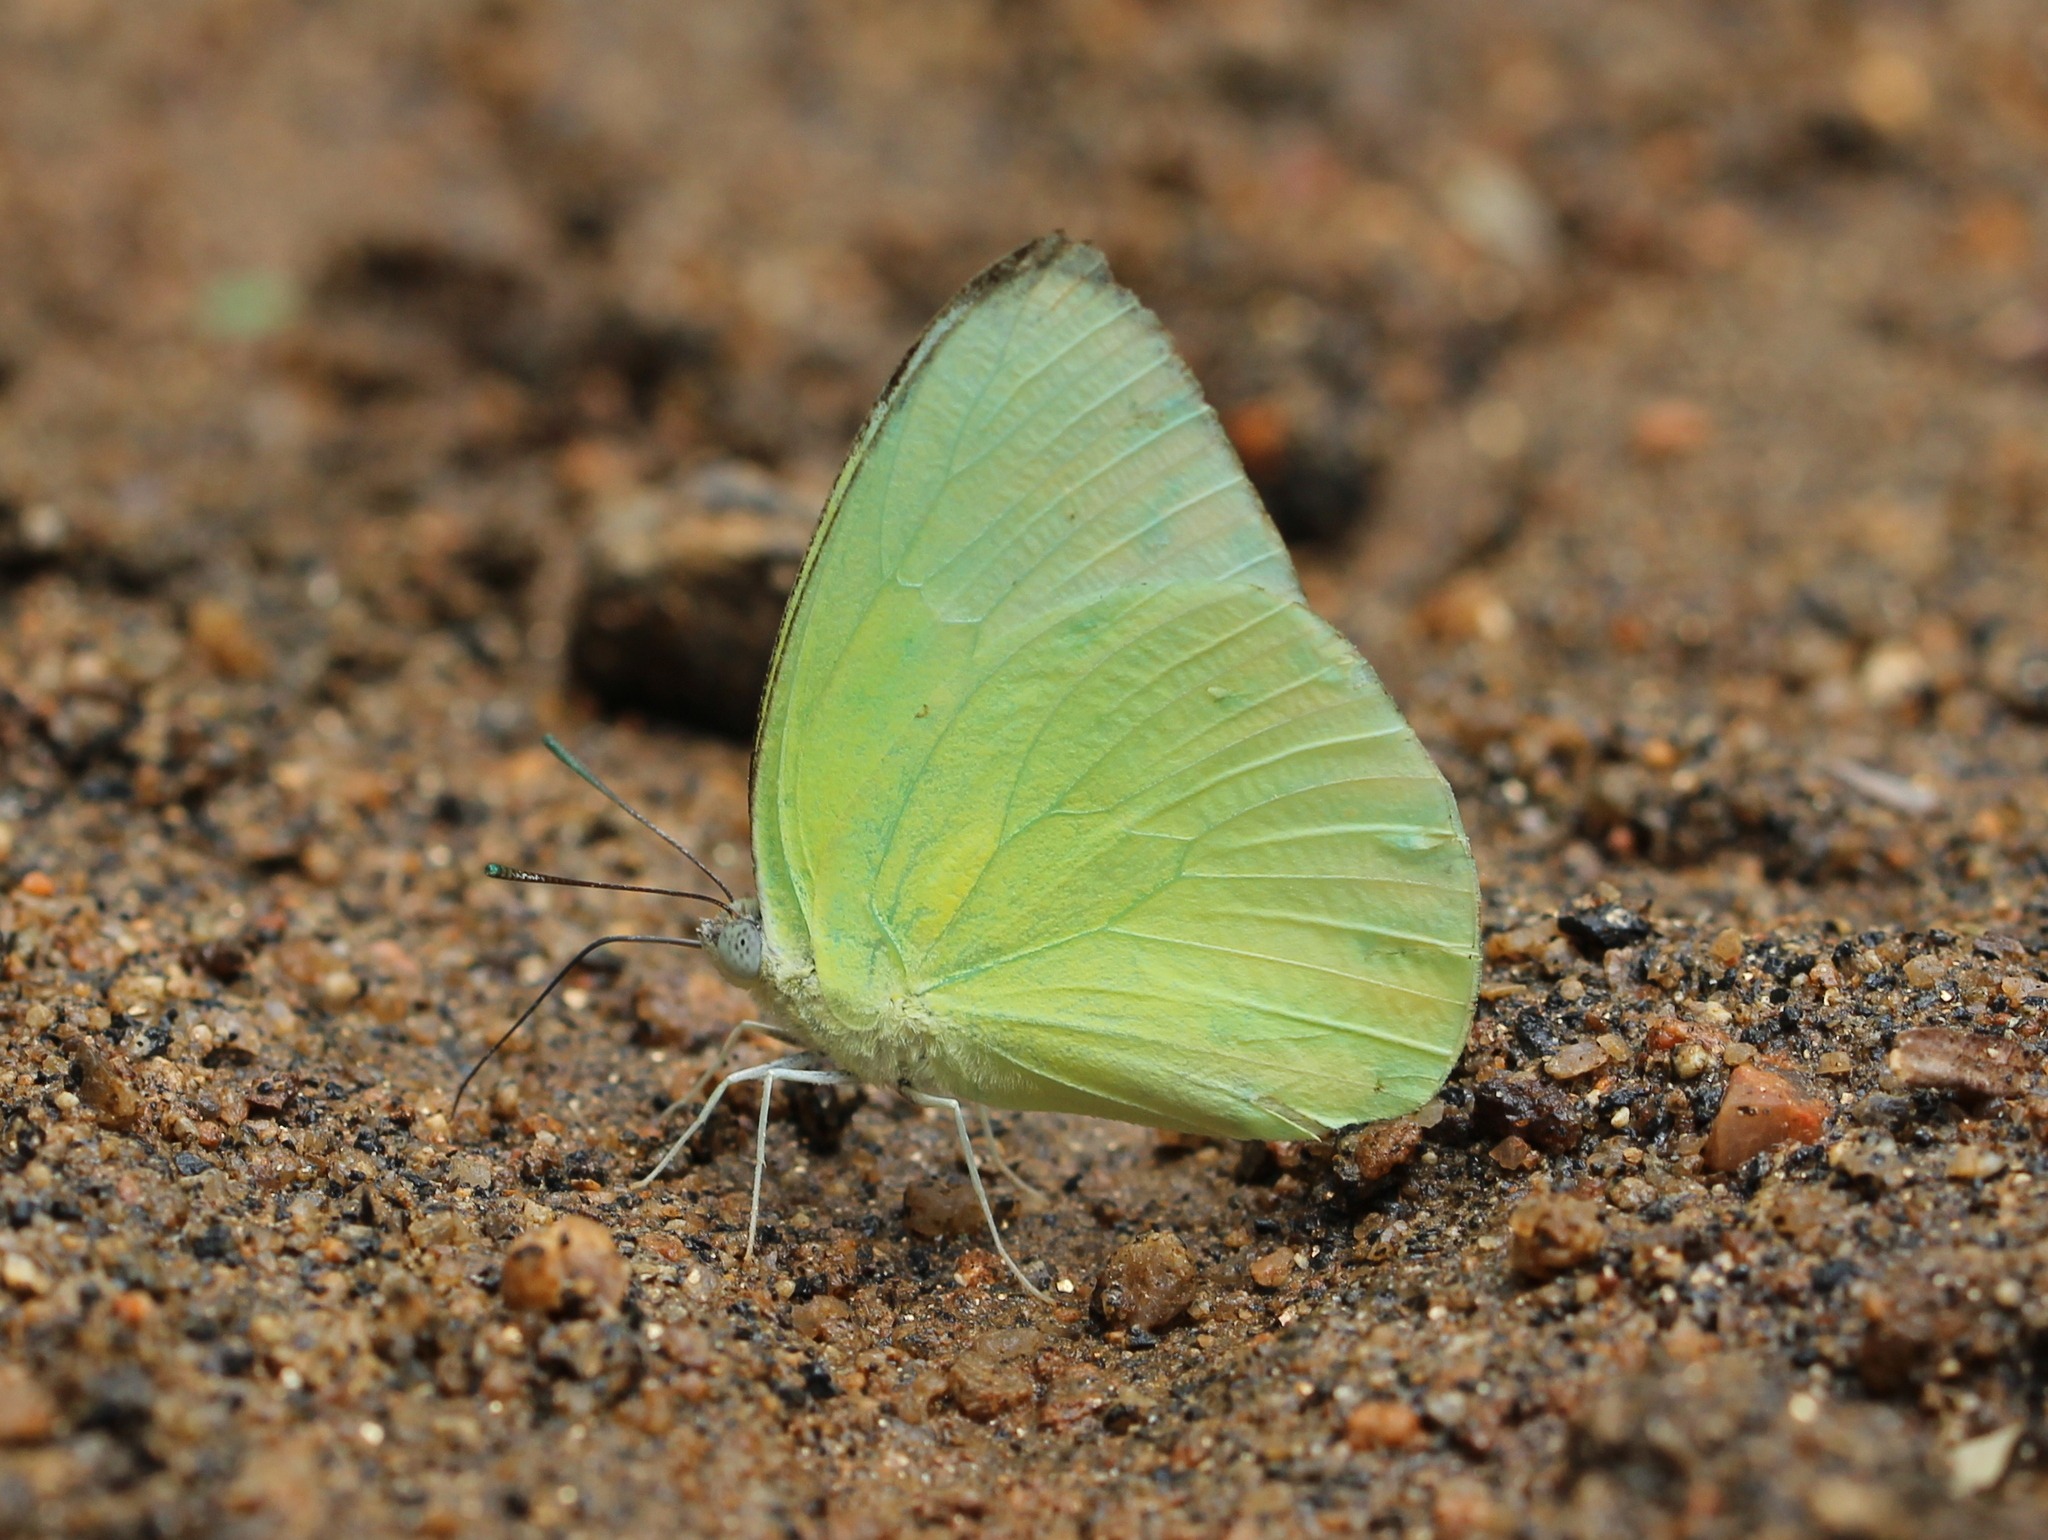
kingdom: Animalia
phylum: Arthropoda
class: Insecta
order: Lepidoptera
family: Pieridae
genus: Catopsilia
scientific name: Catopsilia pomona
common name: Common emigrant
